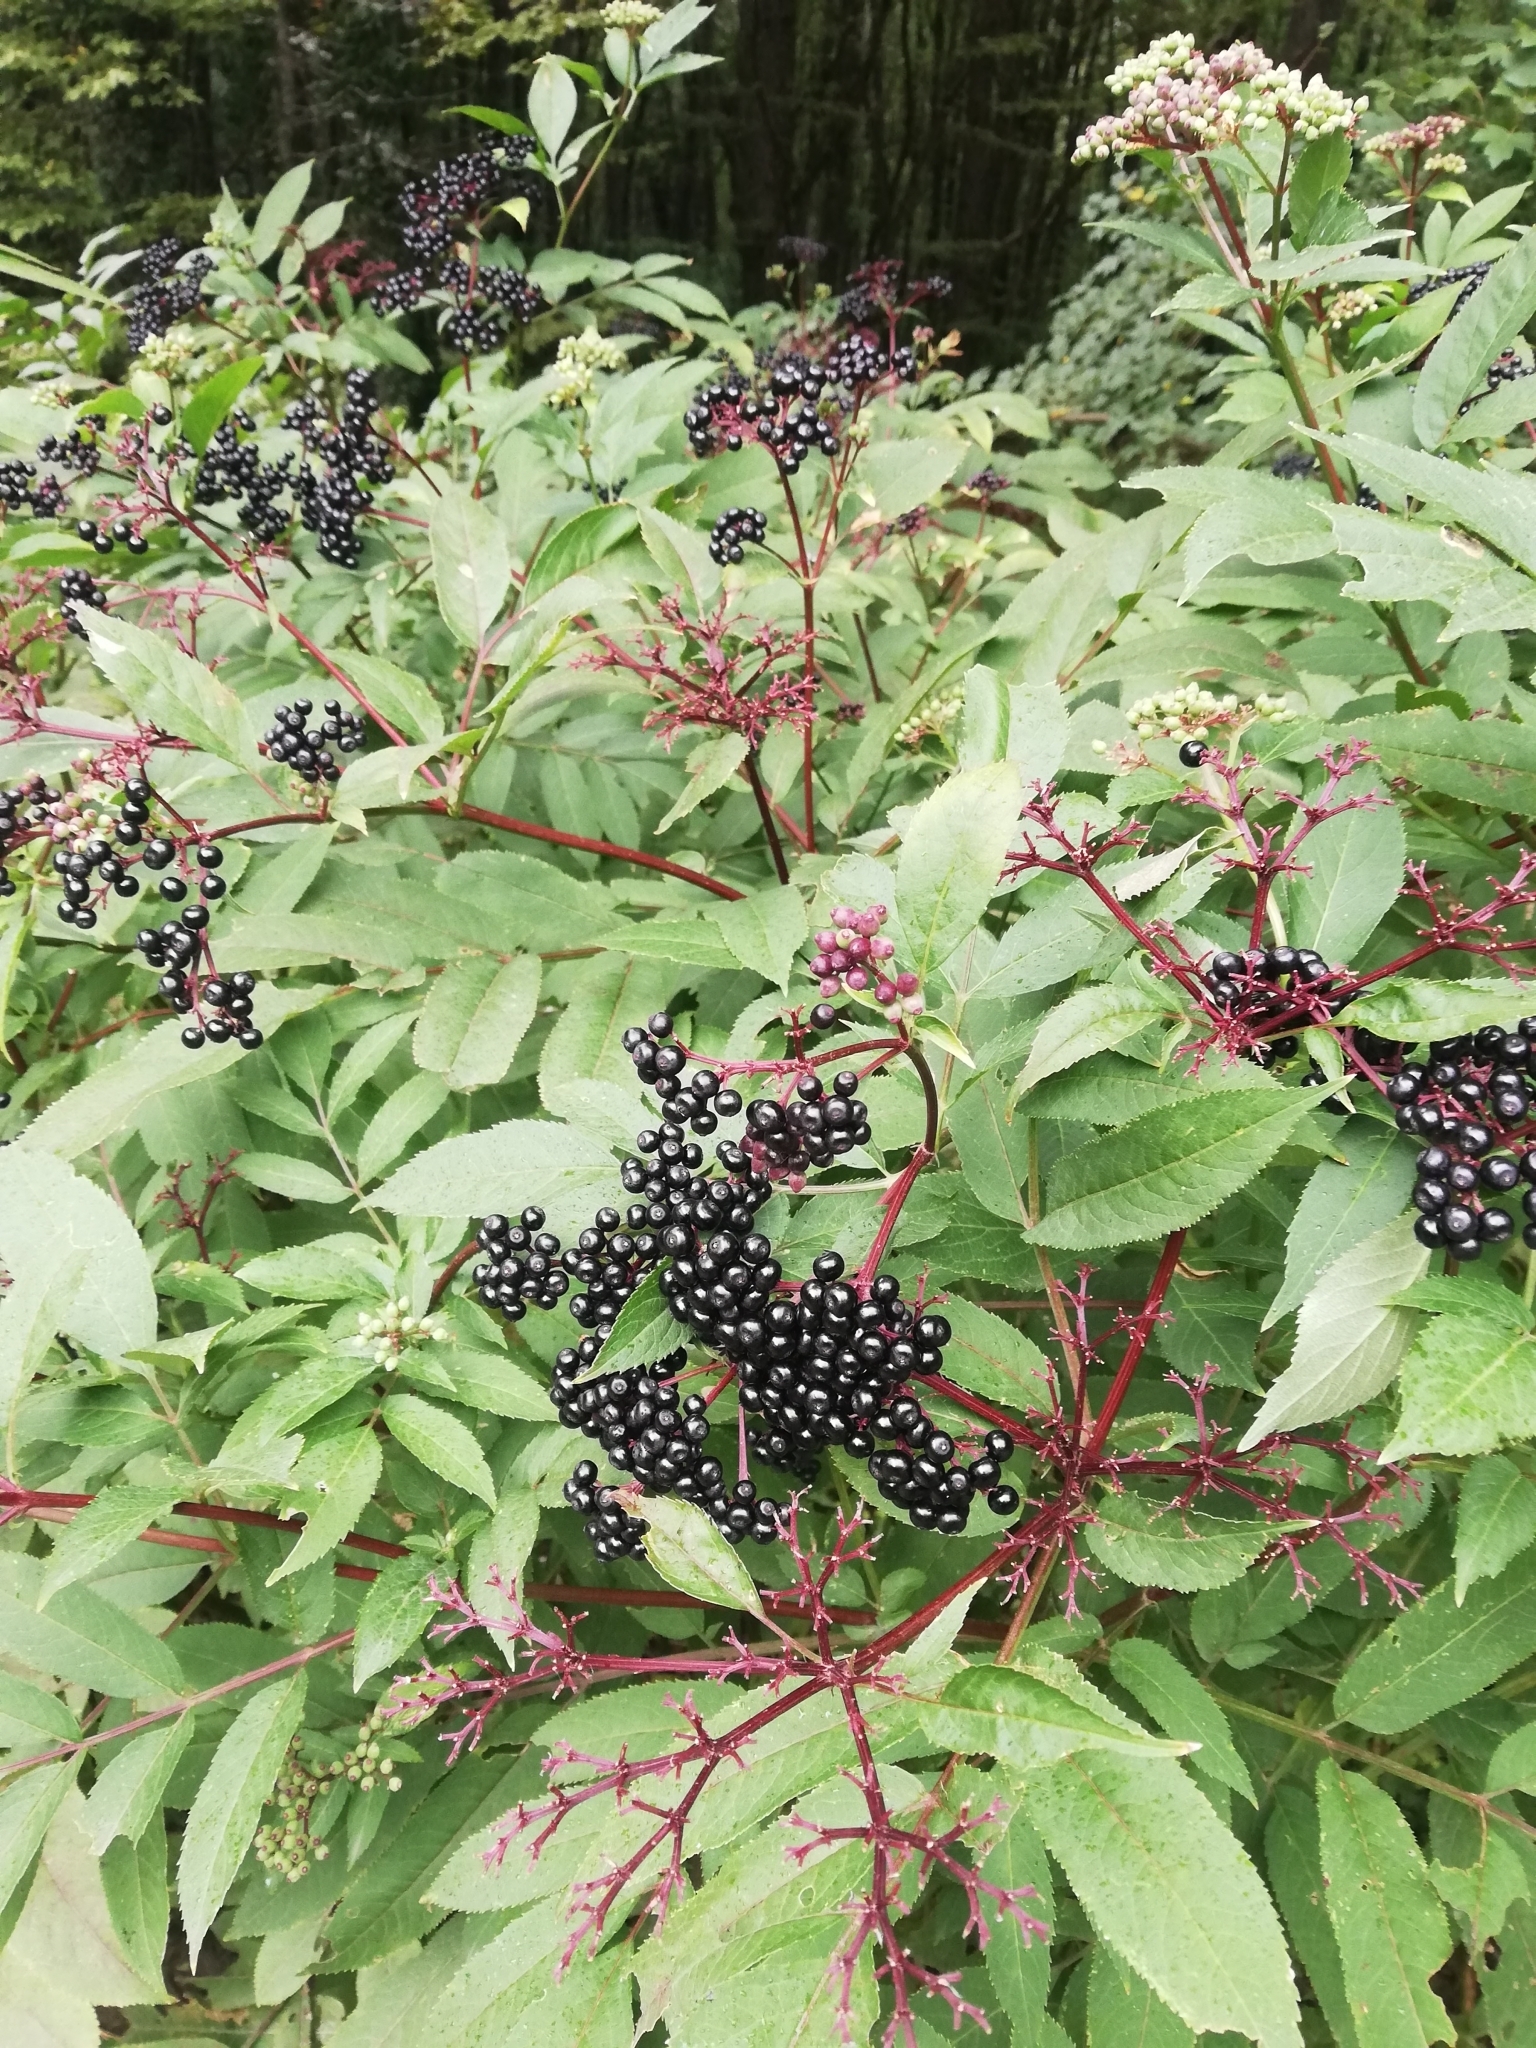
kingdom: Plantae
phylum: Tracheophyta
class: Magnoliopsida
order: Dipsacales
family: Viburnaceae
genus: Sambucus
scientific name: Sambucus ebulus
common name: Dwarf elder
